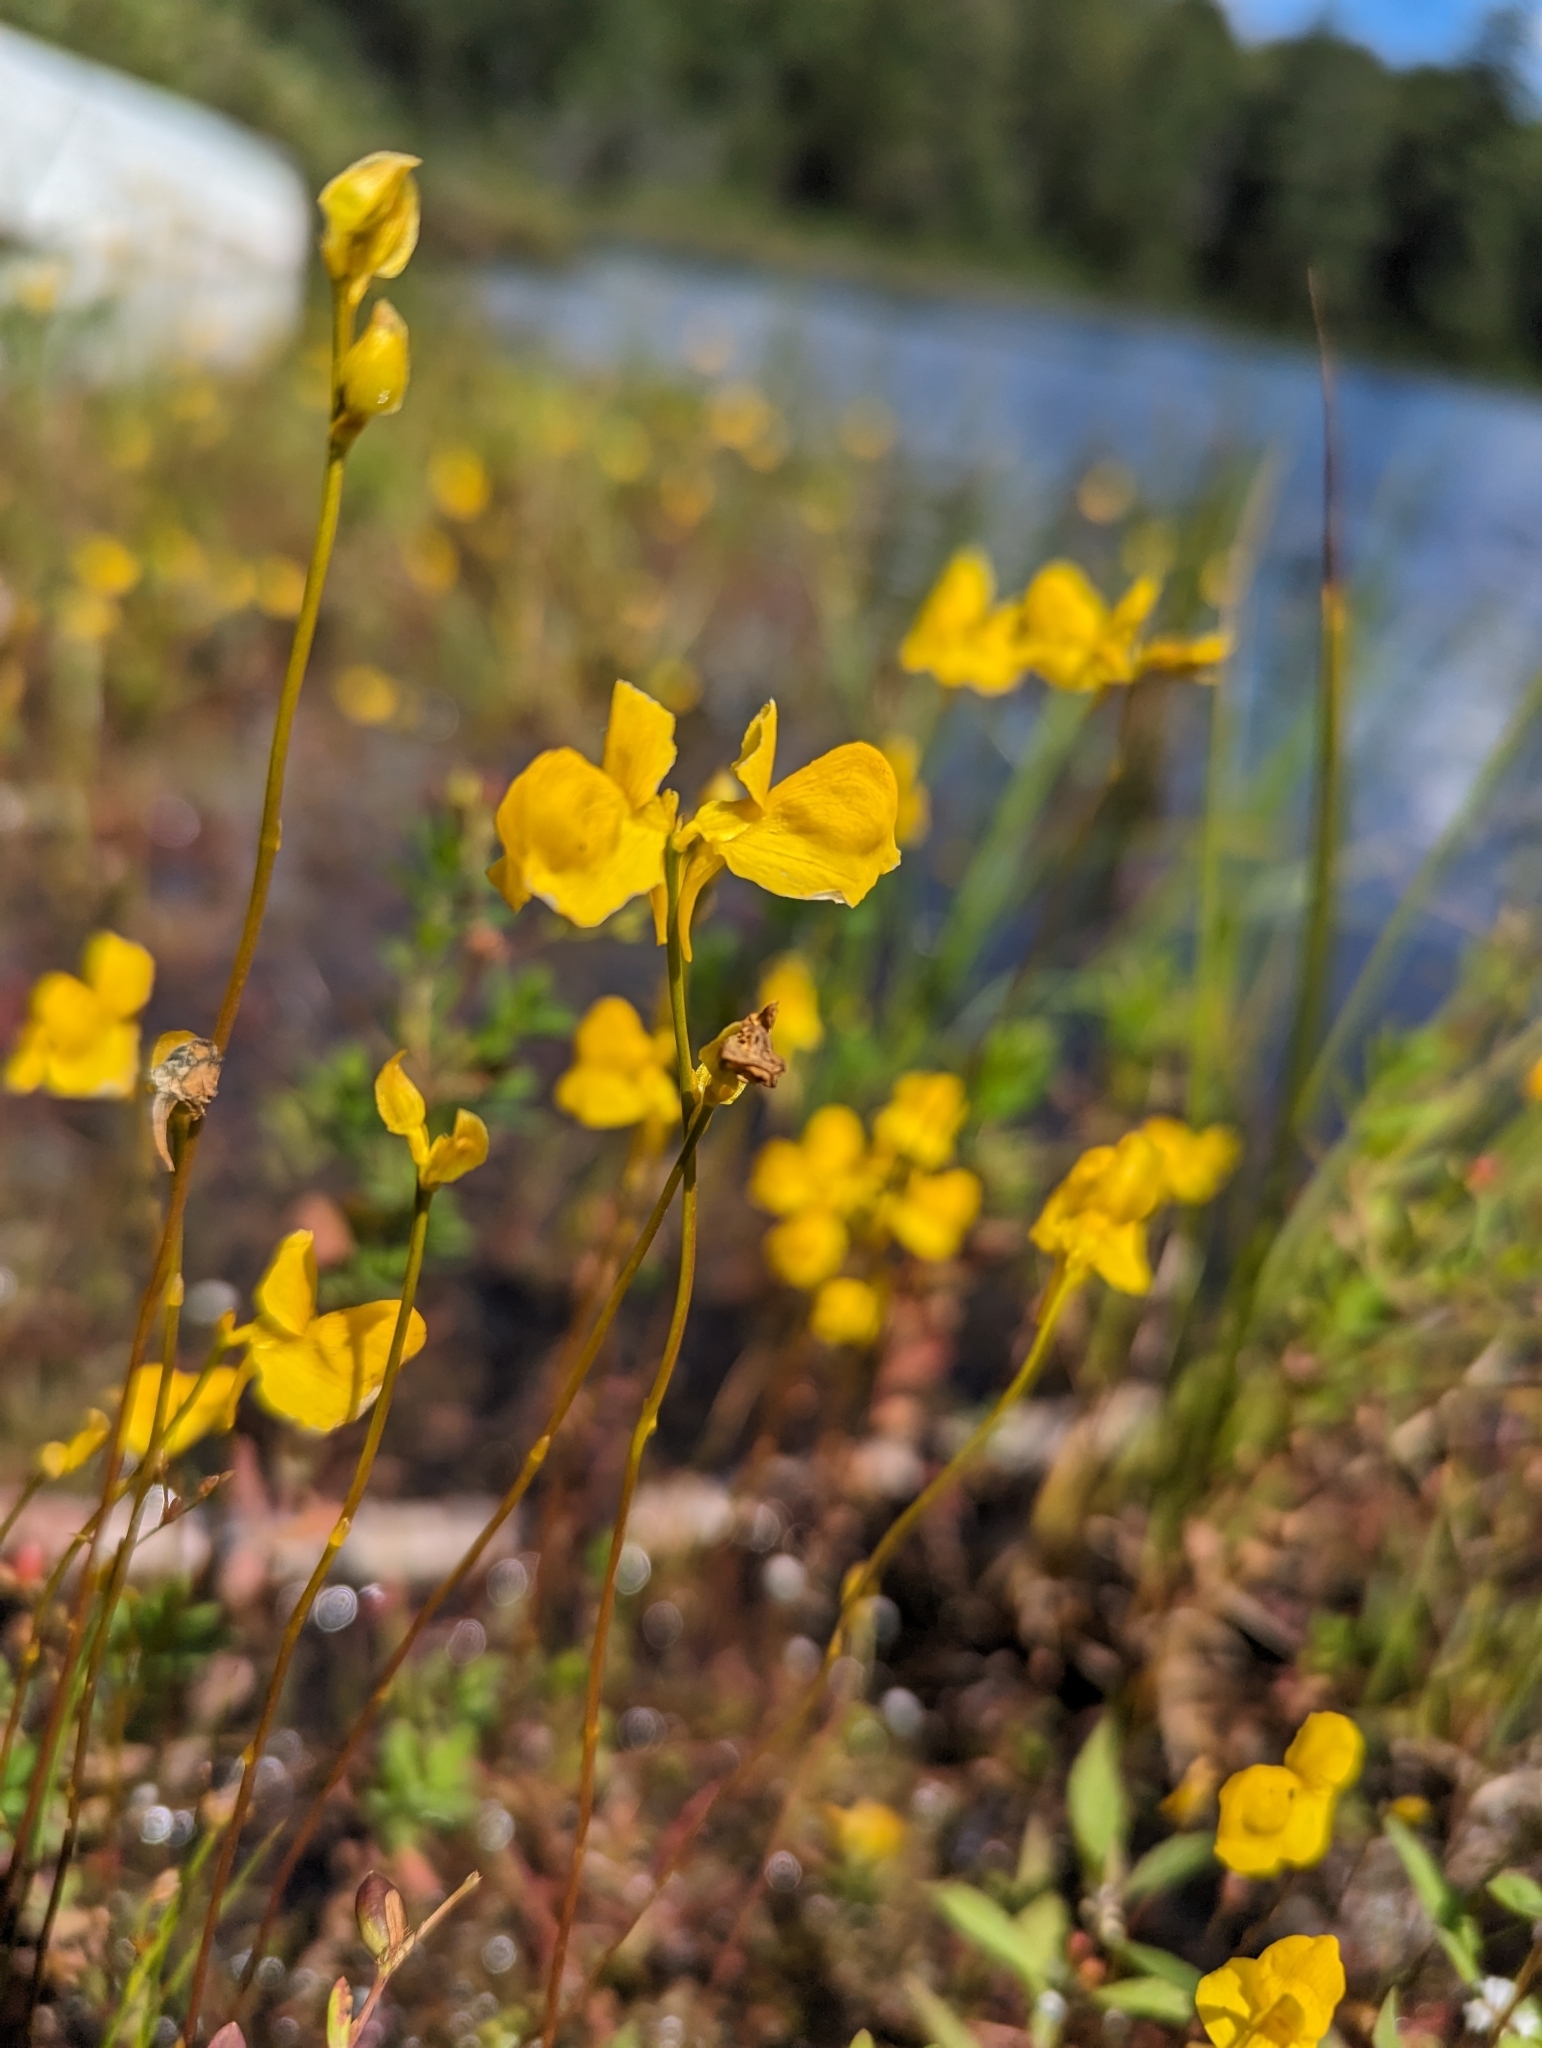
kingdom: Plantae
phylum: Tracheophyta
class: Magnoliopsida
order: Lamiales
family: Lentibulariaceae
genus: Utricularia
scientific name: Utricularia cornuta
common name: Horned bladderwort
